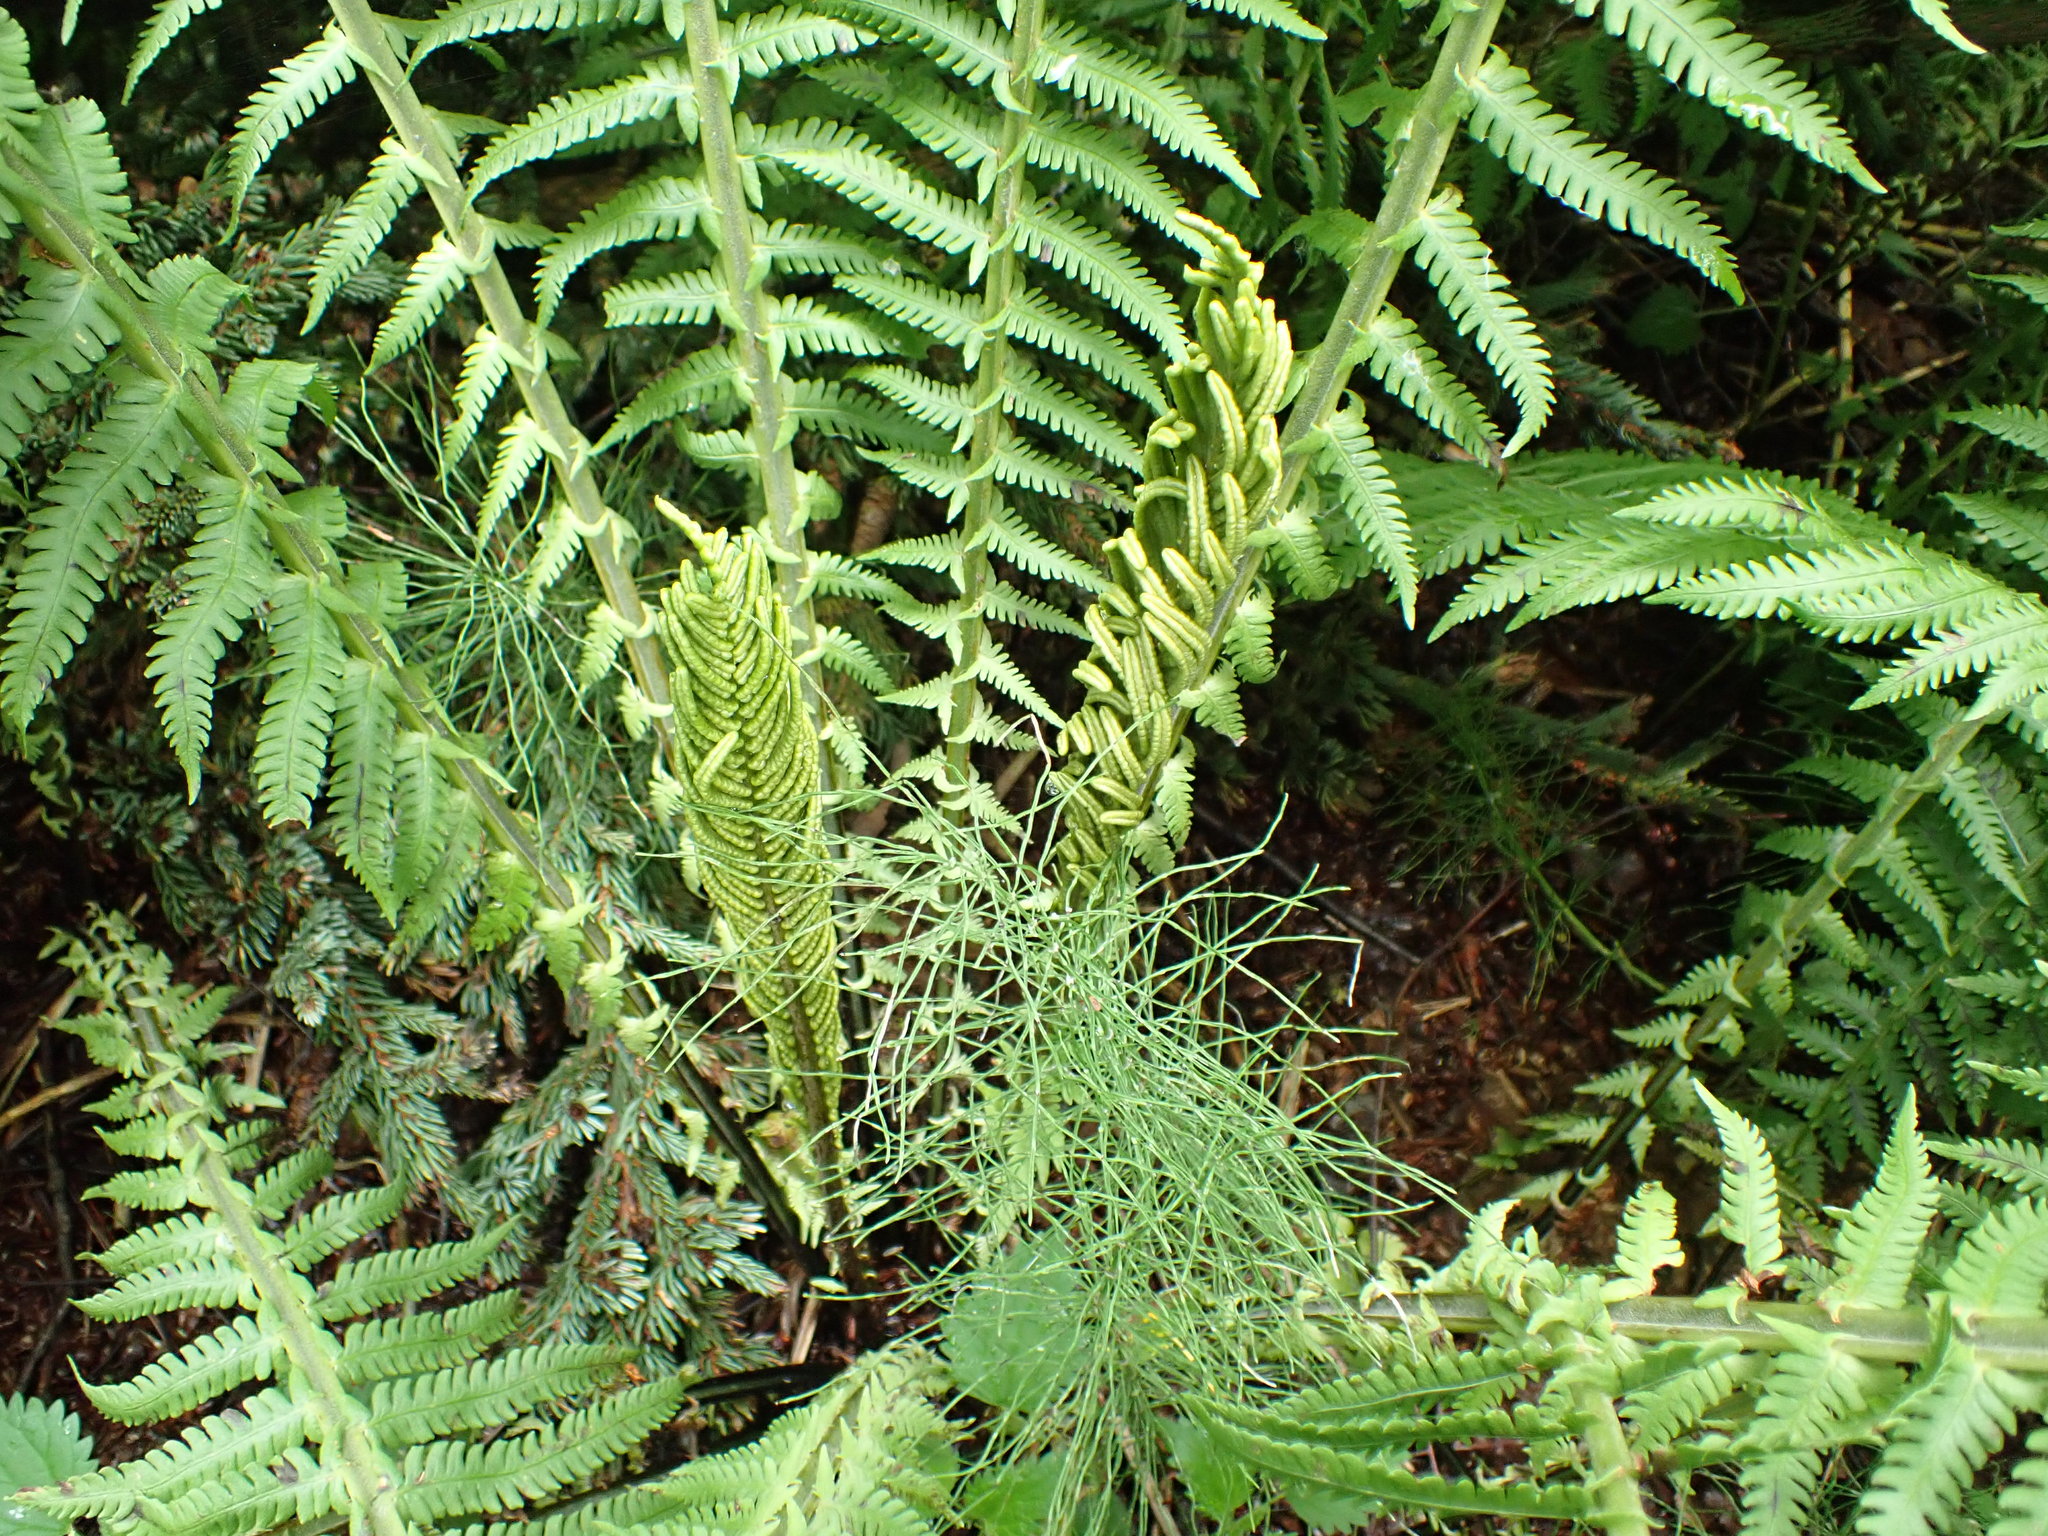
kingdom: Plantae
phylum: Tracheophyta
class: Polypodiopsida
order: Polypodiales
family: Onocleaceae
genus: Matteuccia
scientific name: Matteuccia struthiopteris
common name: Ostrich fern
